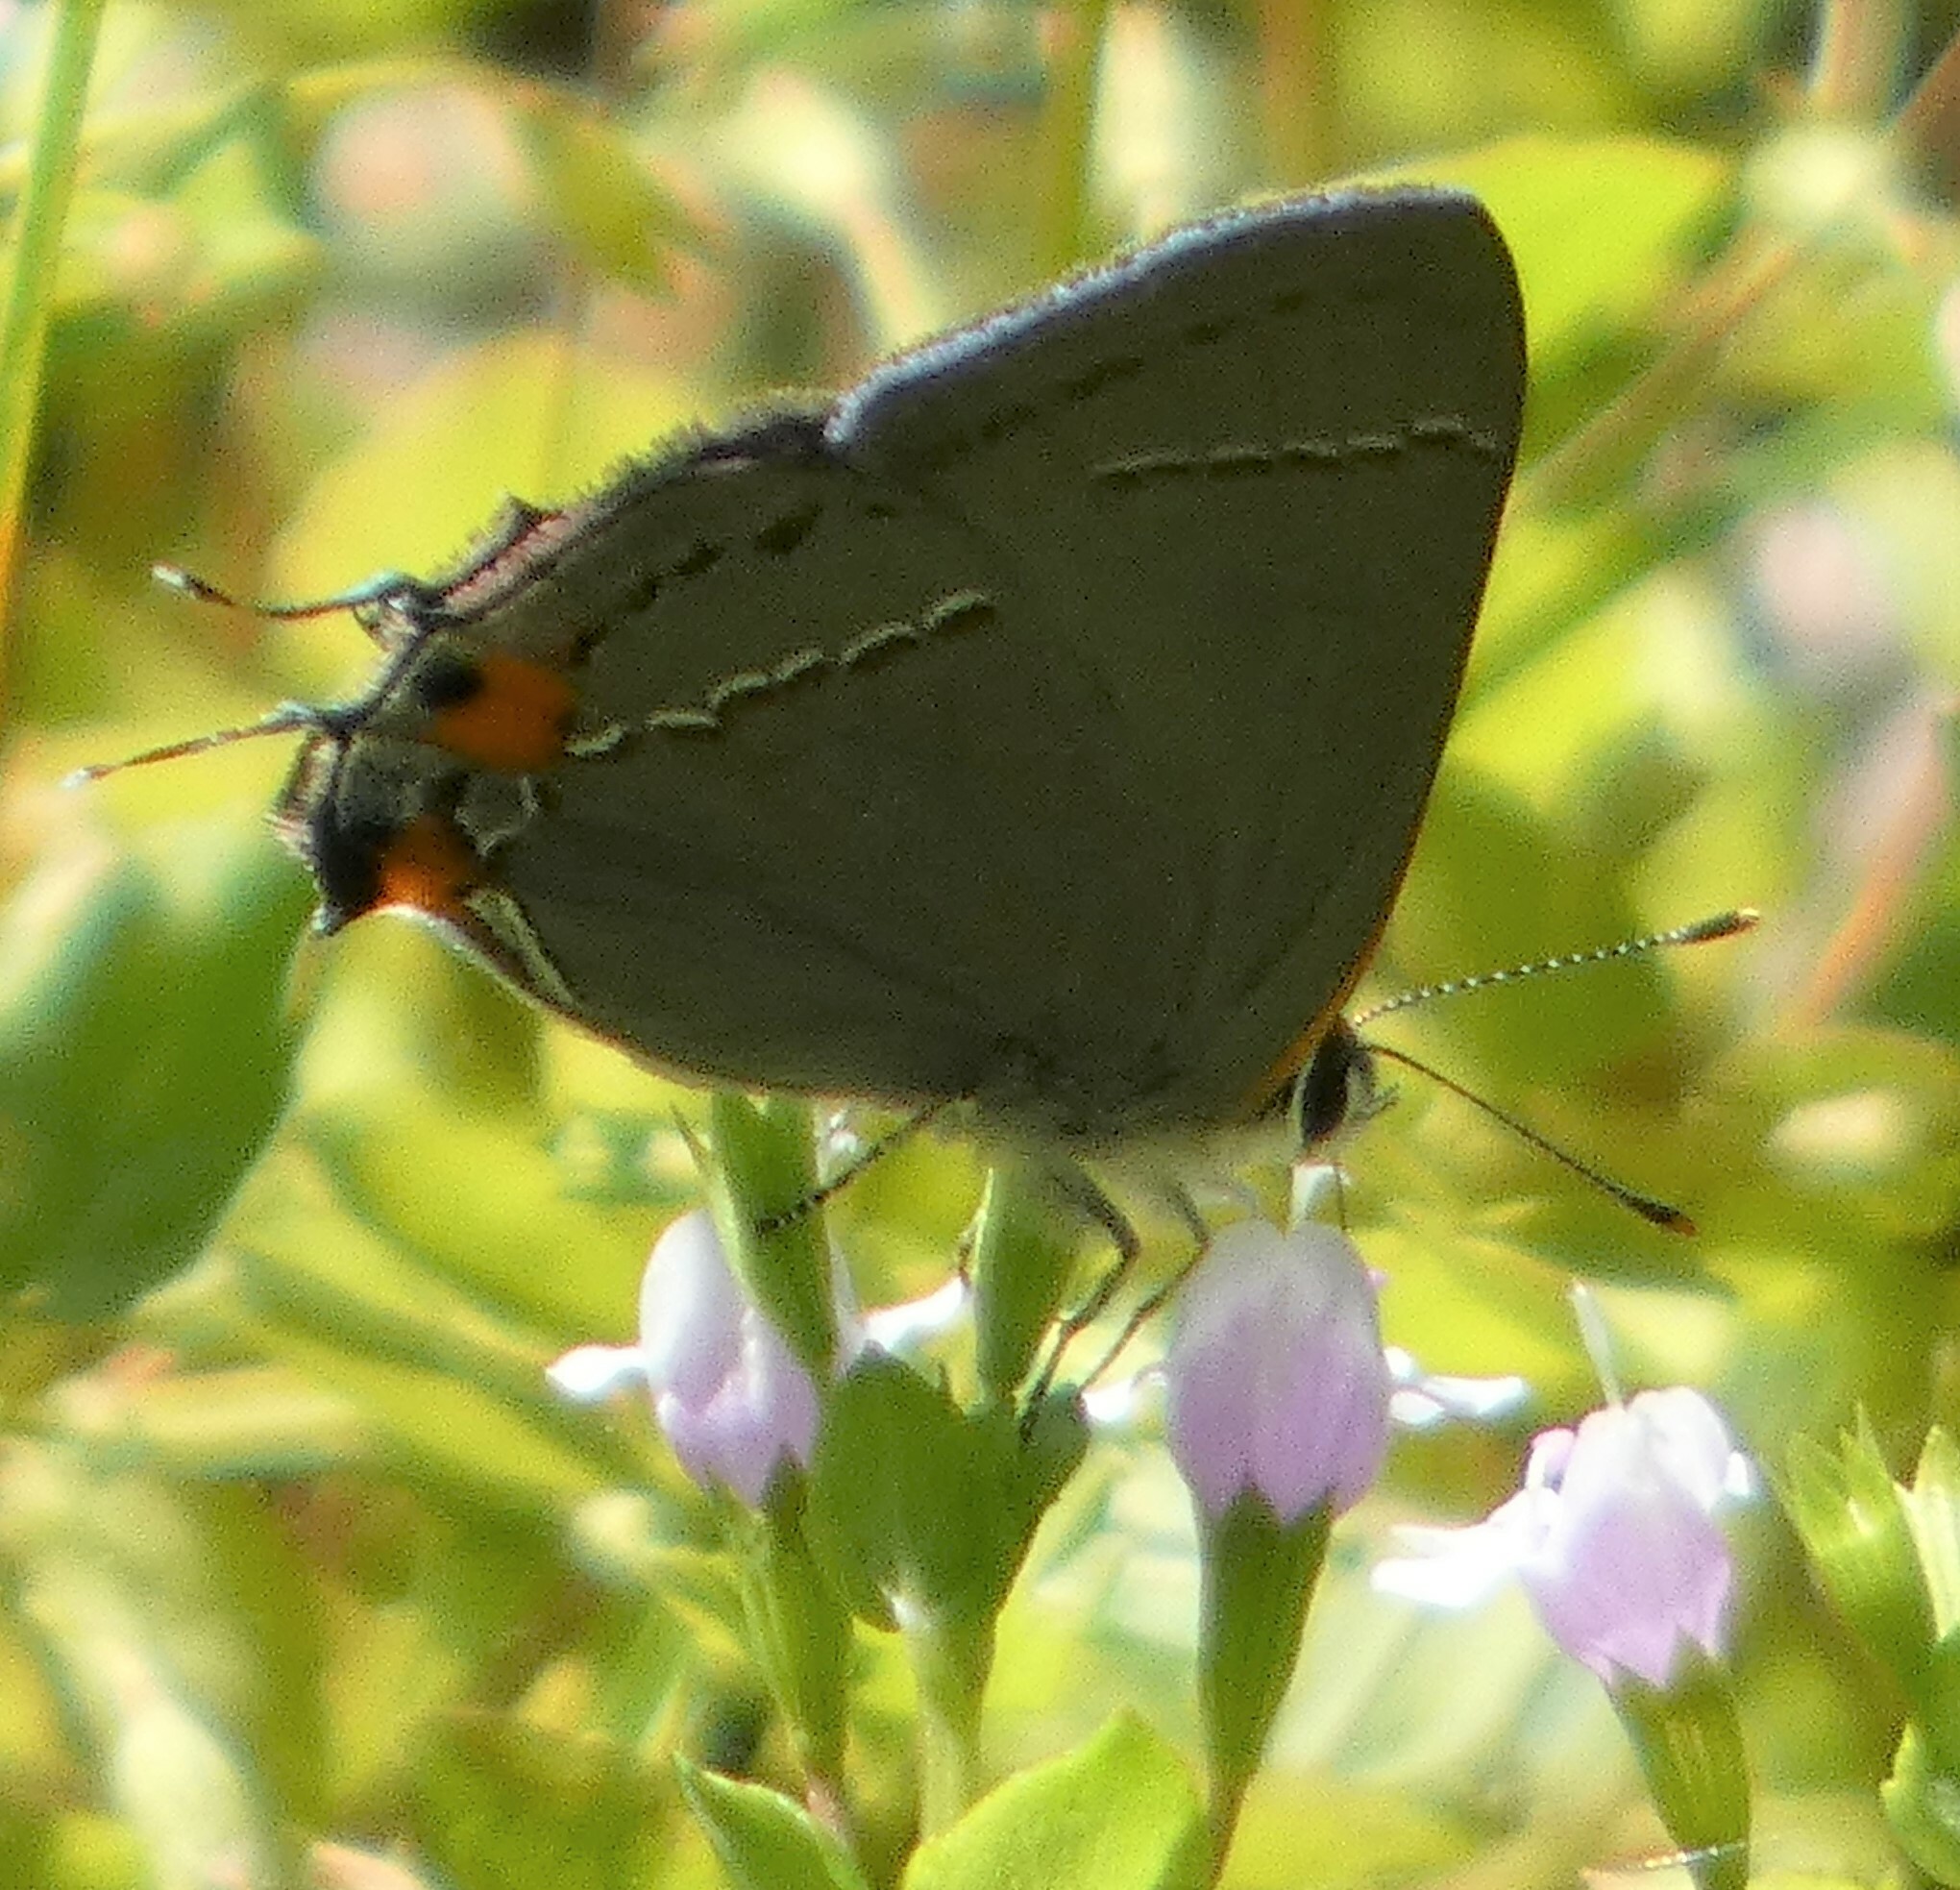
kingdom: Animalia
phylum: Arthropoda
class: Insecta
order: Lepidoptera
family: Lycaenidae
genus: Strymon
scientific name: Strymon melinus
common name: Gray hairstreak
